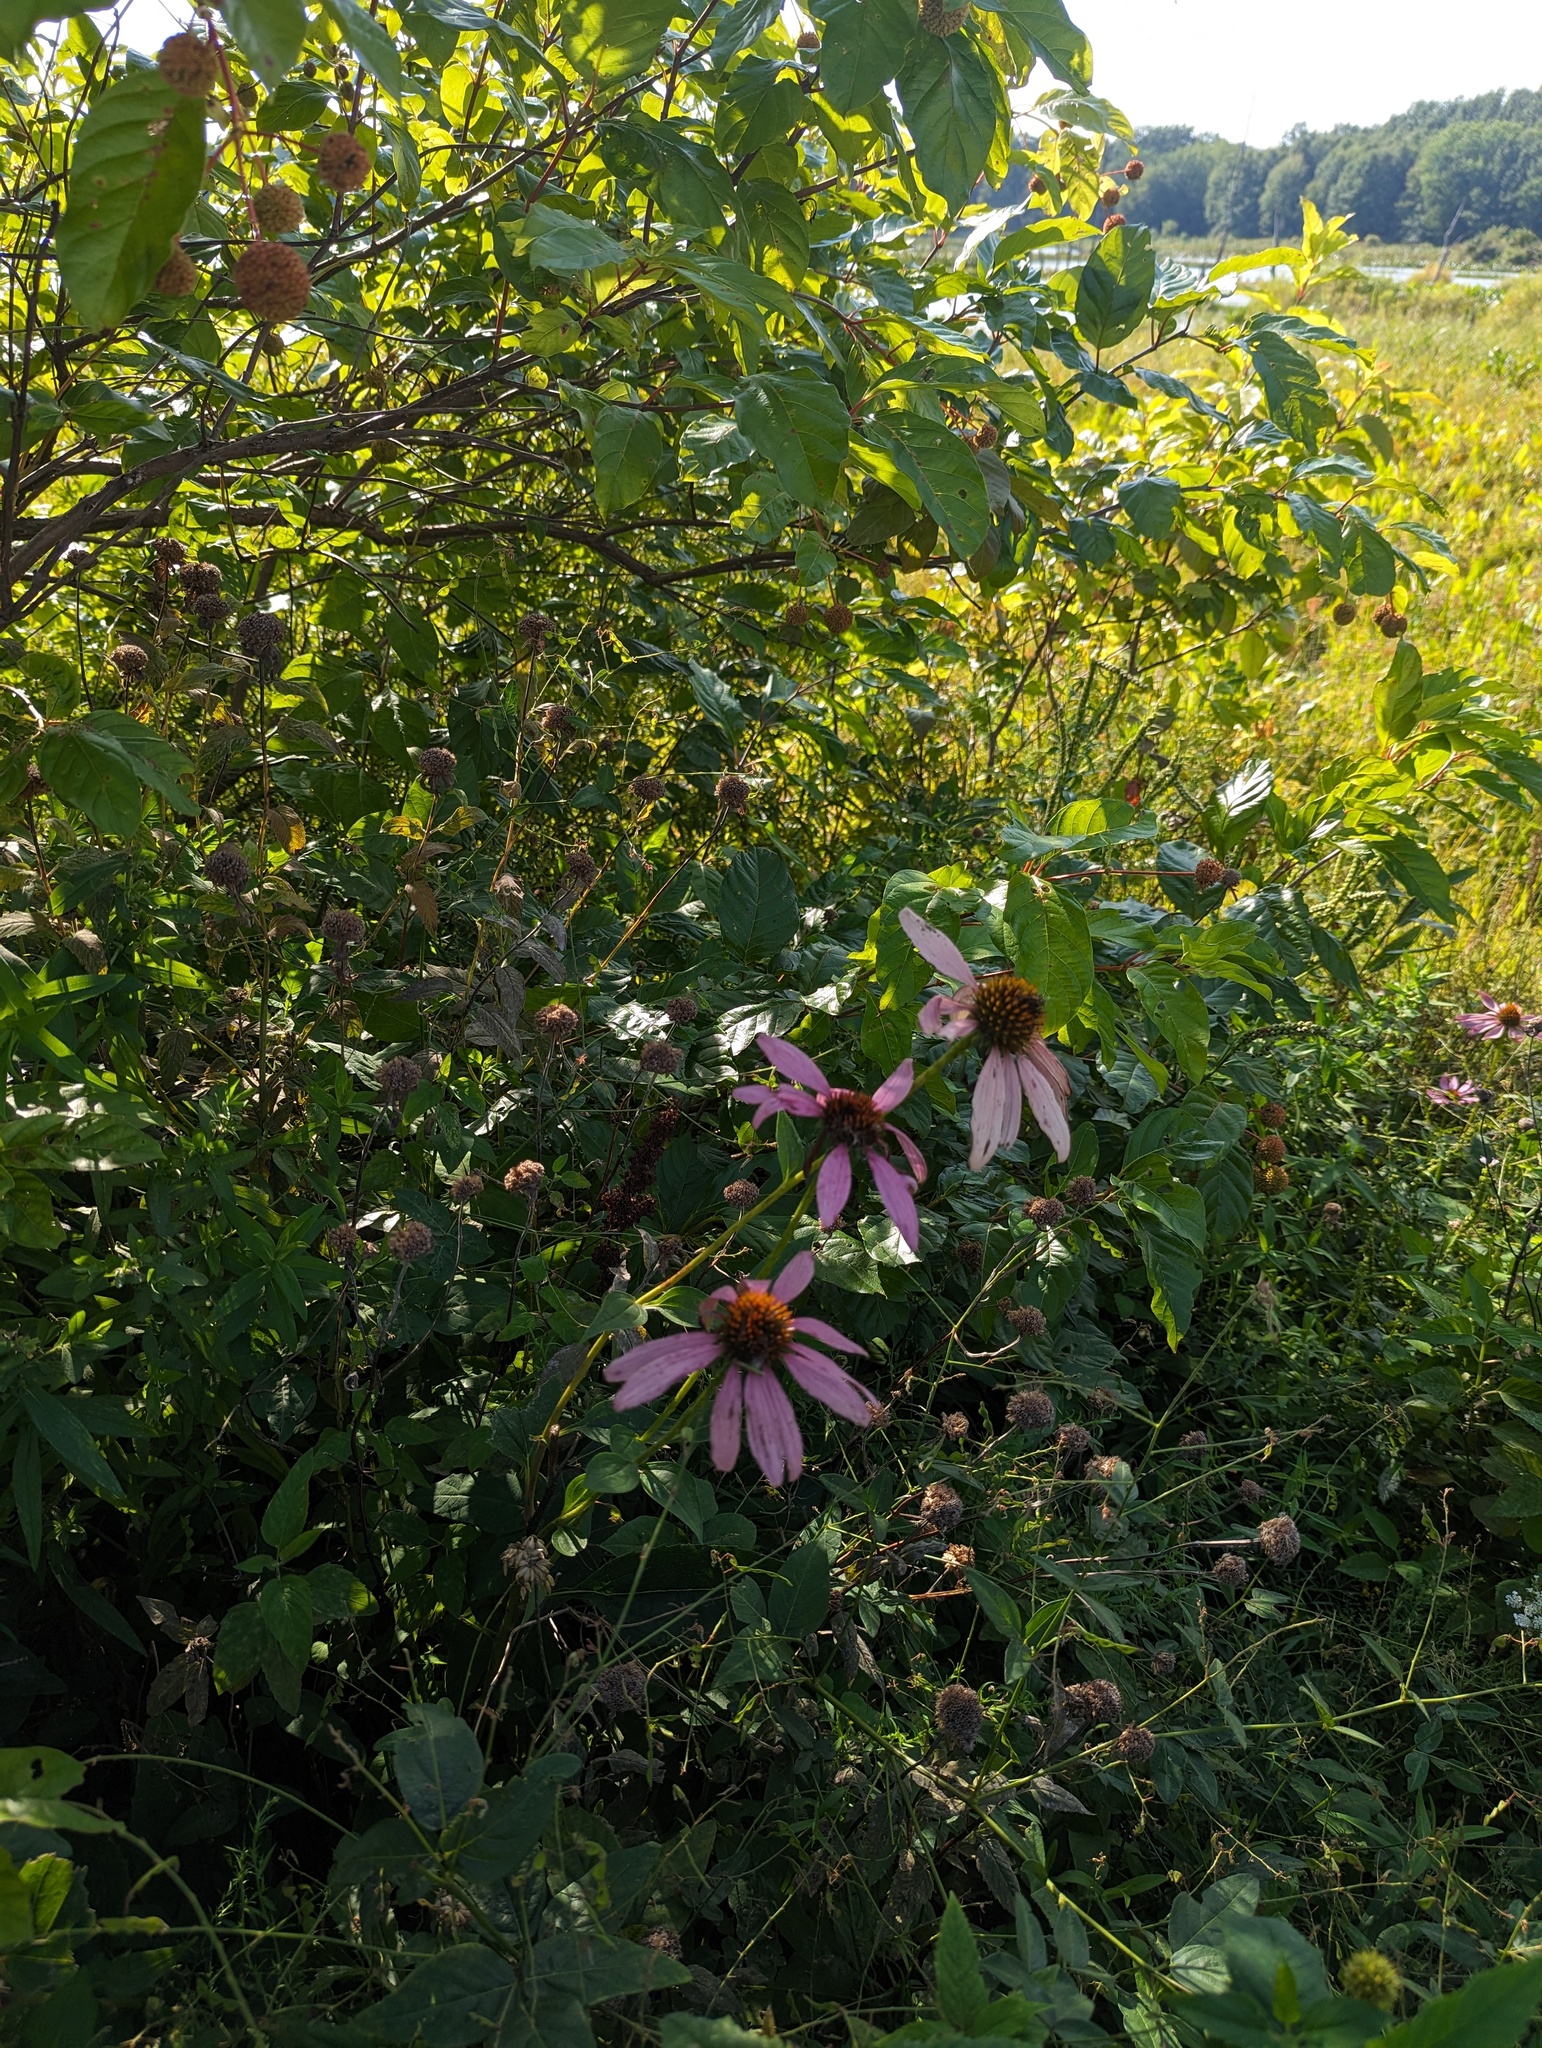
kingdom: Plantae
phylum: Tracheophyta
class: Magnoliopsida
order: Asterales
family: Asteraceae
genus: Echinacea
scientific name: Echinacea purpurea
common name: Broad-leaved purple coneflower
